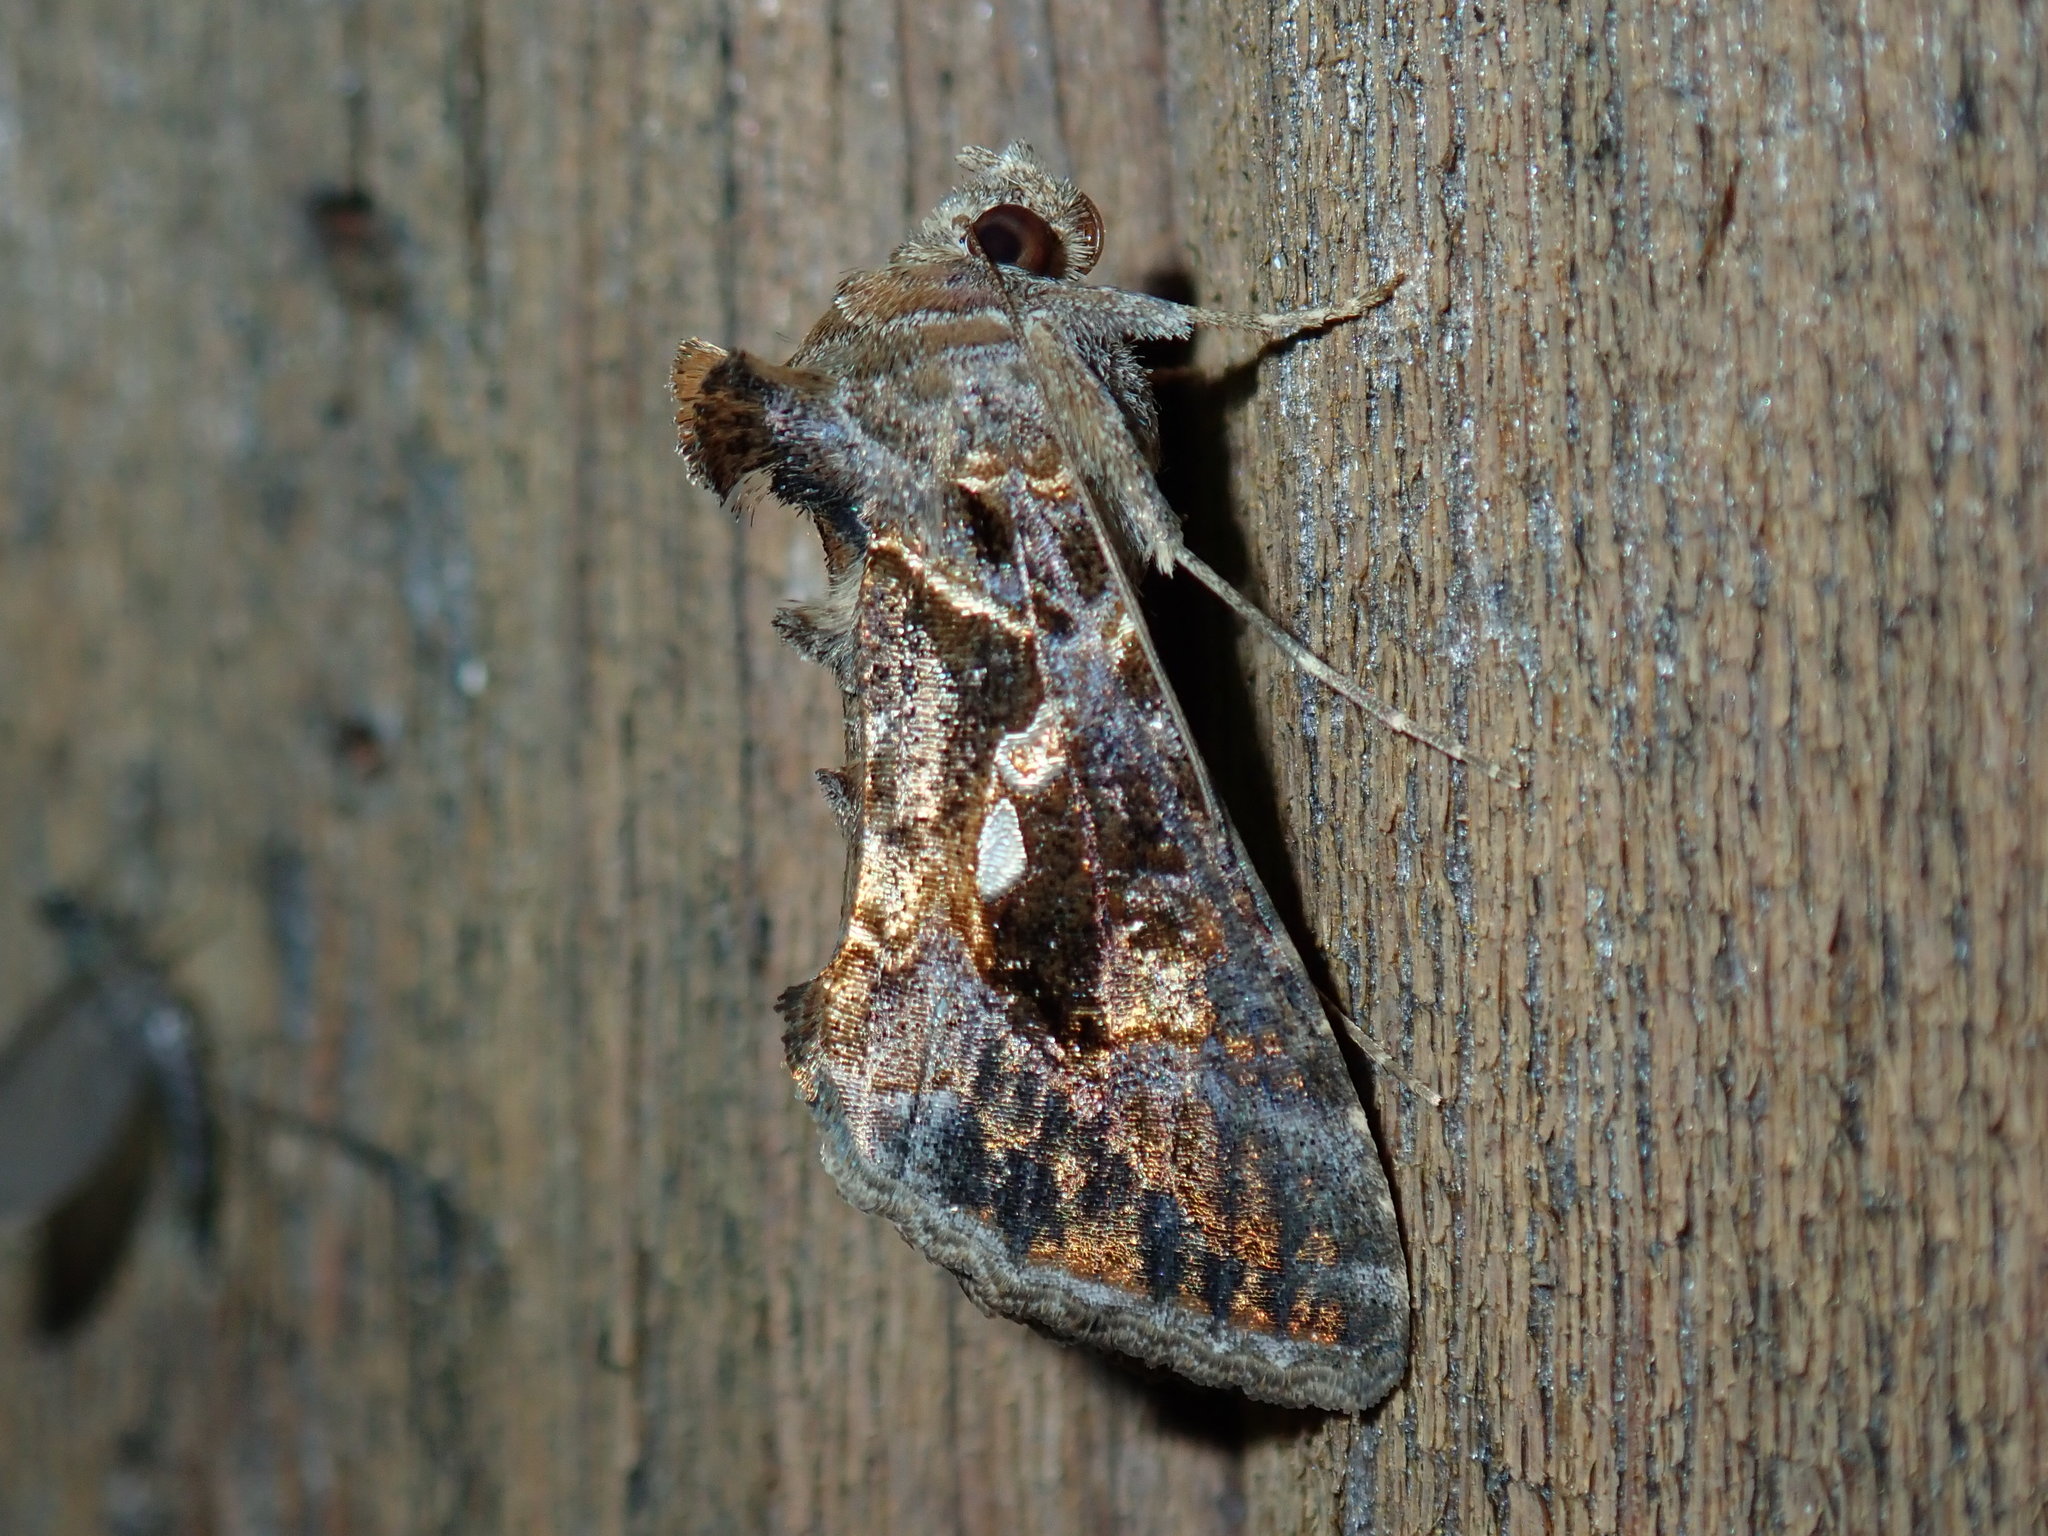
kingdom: Animalia
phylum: Arthropoda
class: Insecta
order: Lepidoptera
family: Noctuidae
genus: Chrysodeixis
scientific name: Chrysodeixis includens
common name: Cutworm moth
